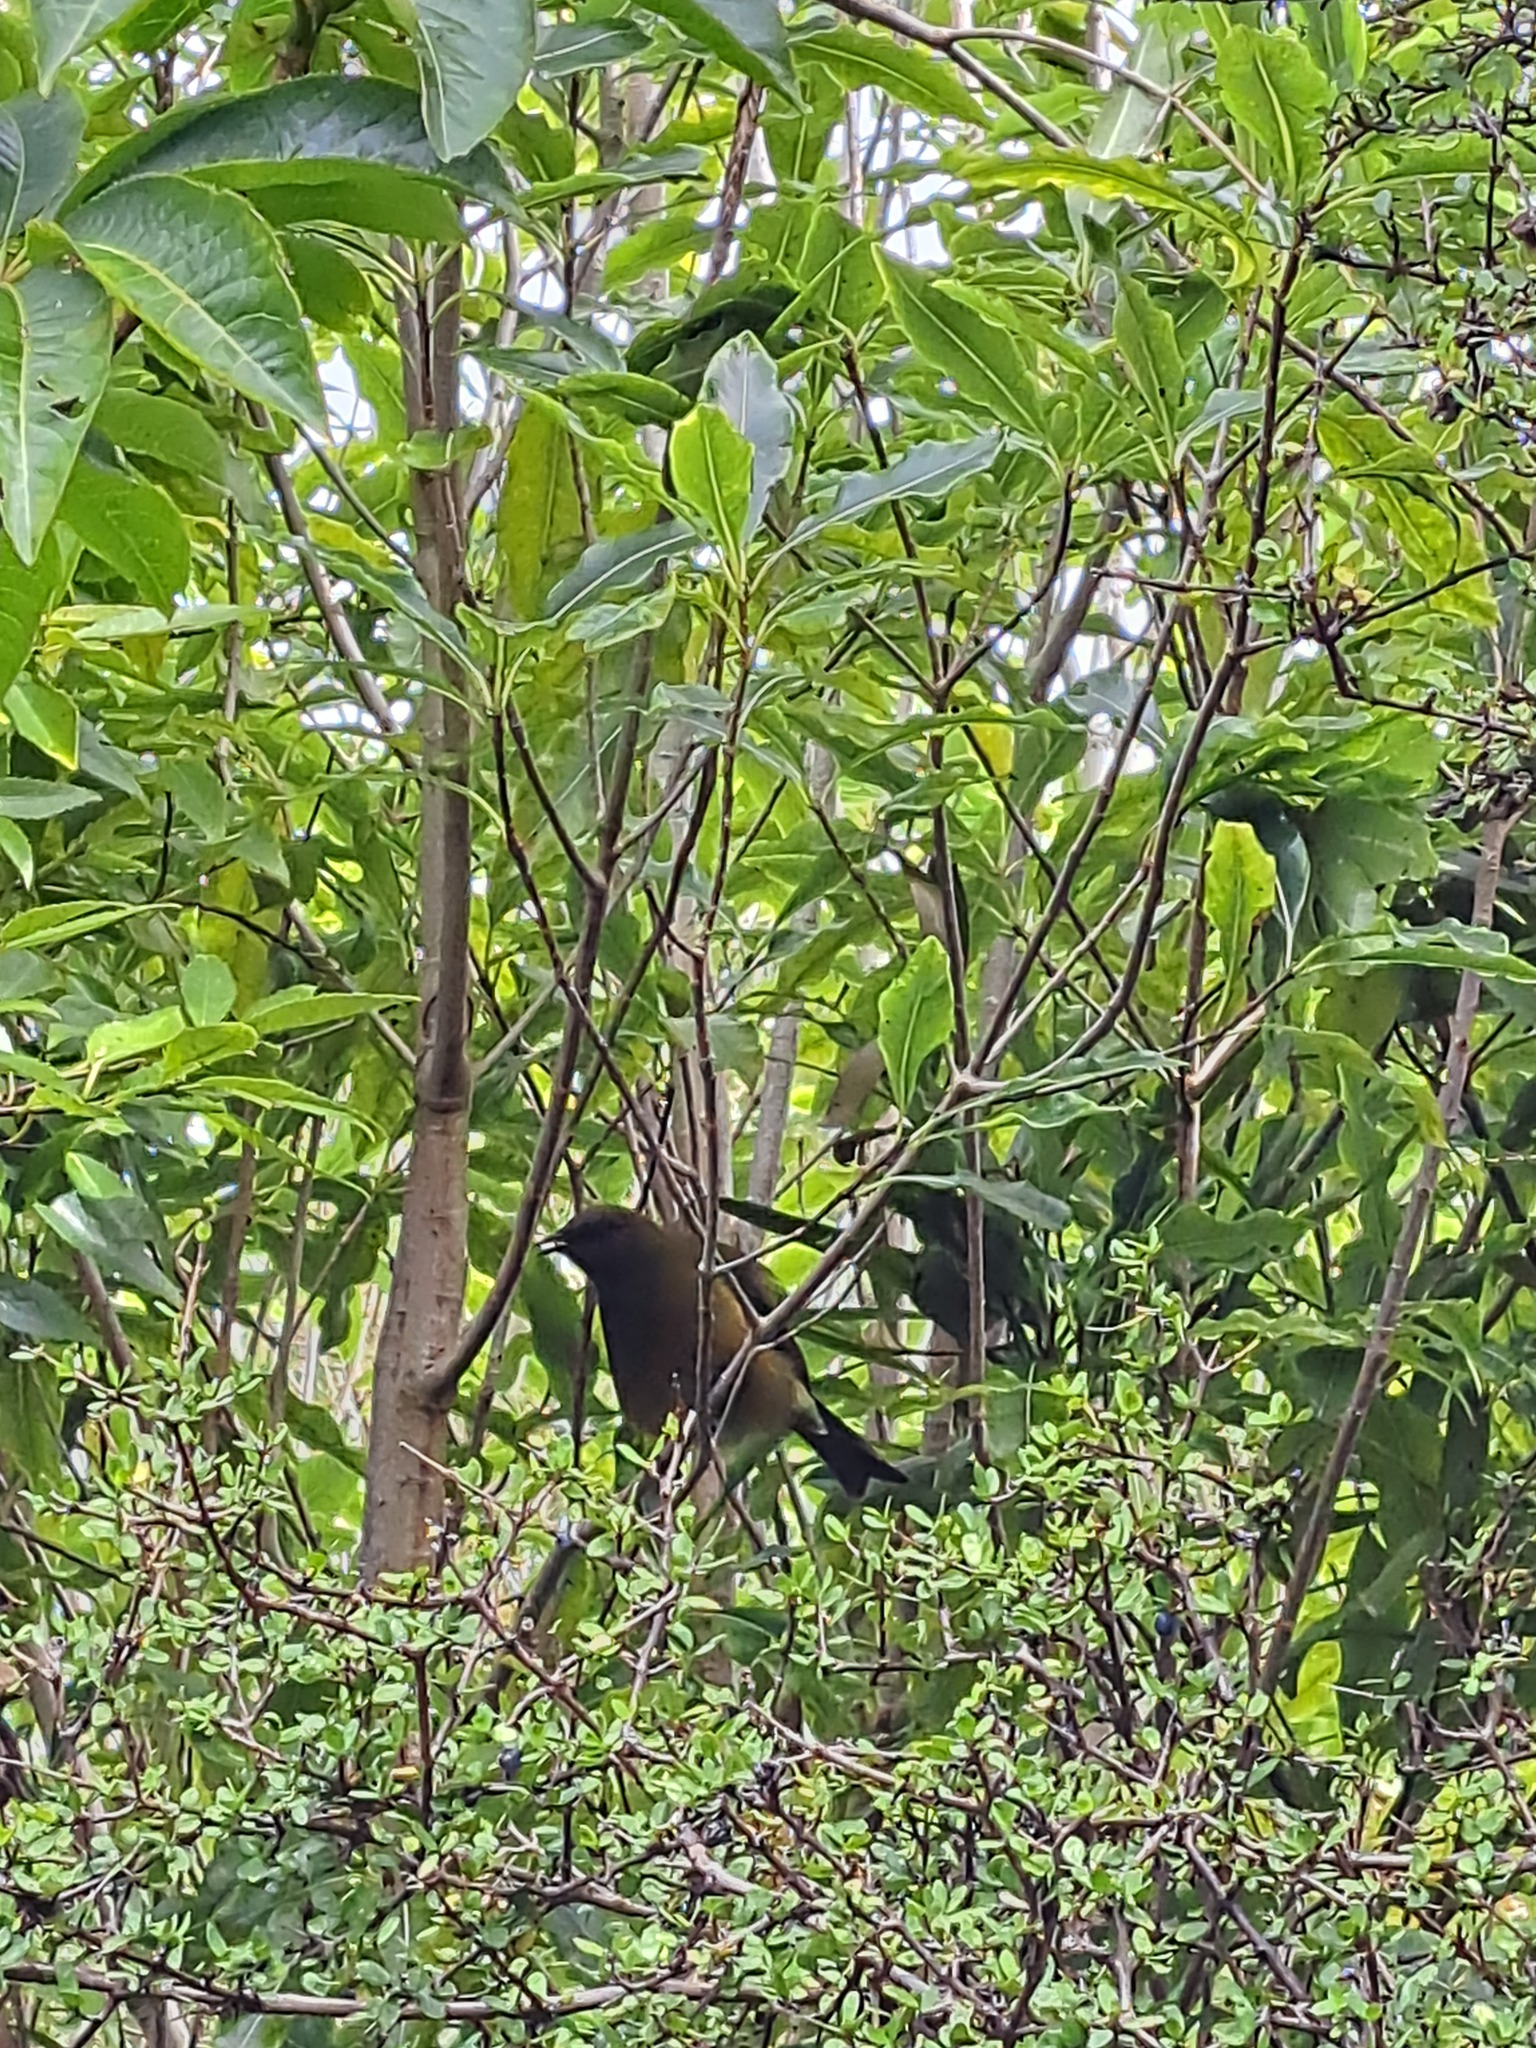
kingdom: Animalia
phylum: Chordata
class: Aves
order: Passeriformes
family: Meliphagidae
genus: Anthornis
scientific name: Anthornis melanura
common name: New zealand bellbird
